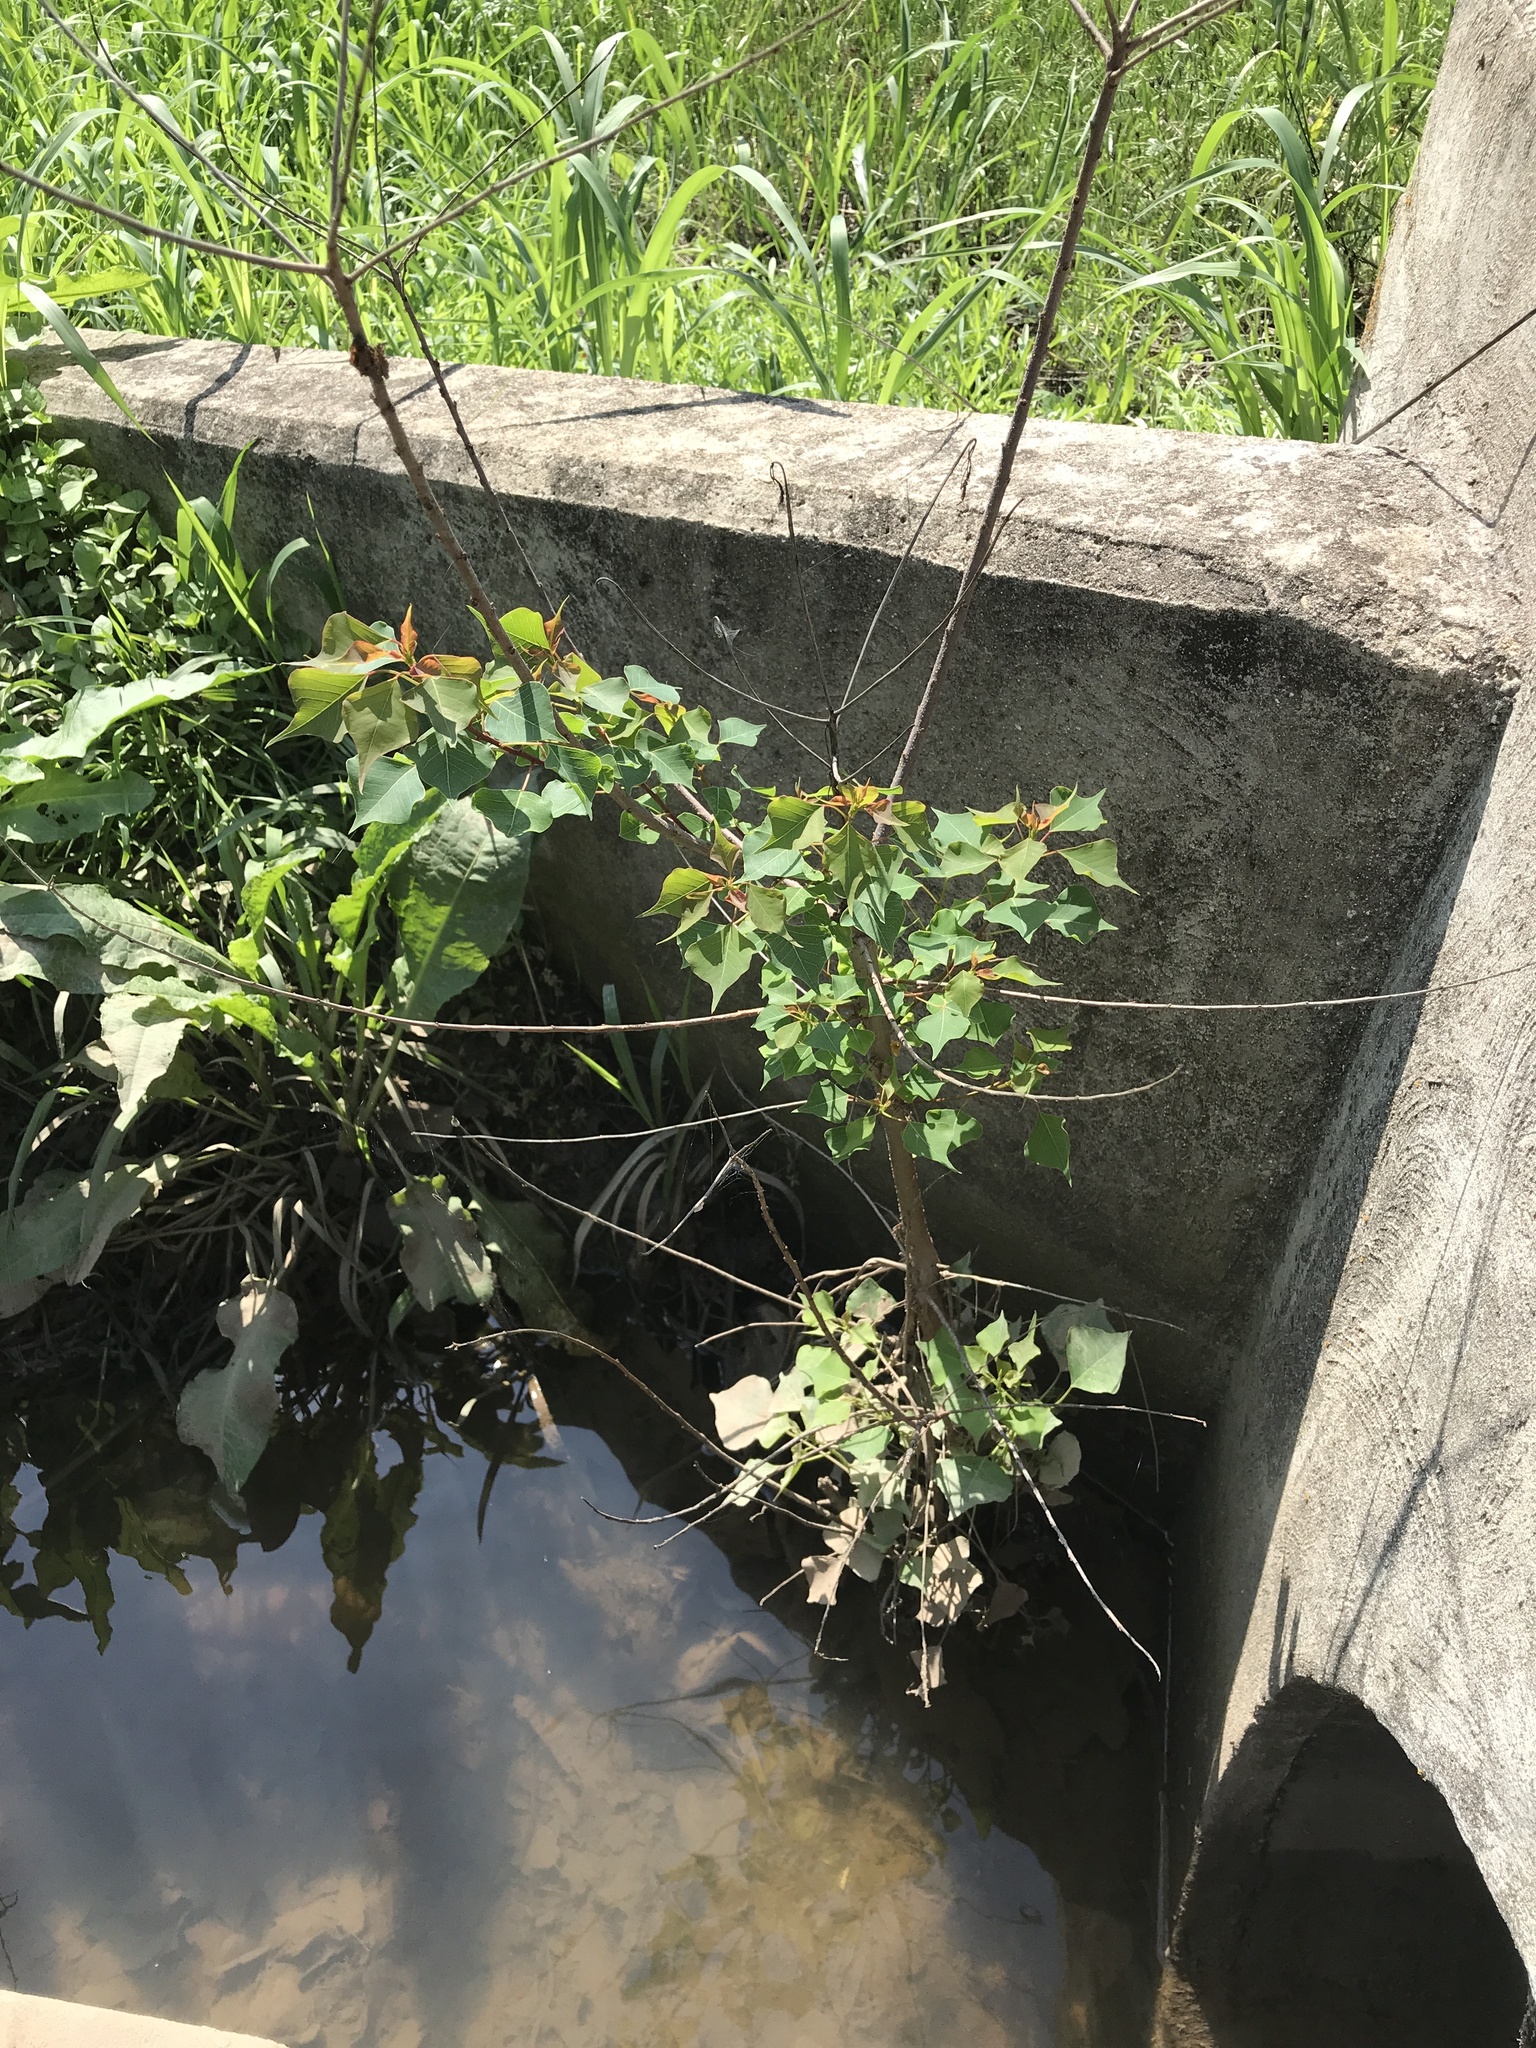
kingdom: Plantae
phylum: Tracheophyta
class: Magnoliopsida
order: Malpighiales
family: Euphorbiaceae
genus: Triadica
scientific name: Triadica sebifera
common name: Chinese tallow
